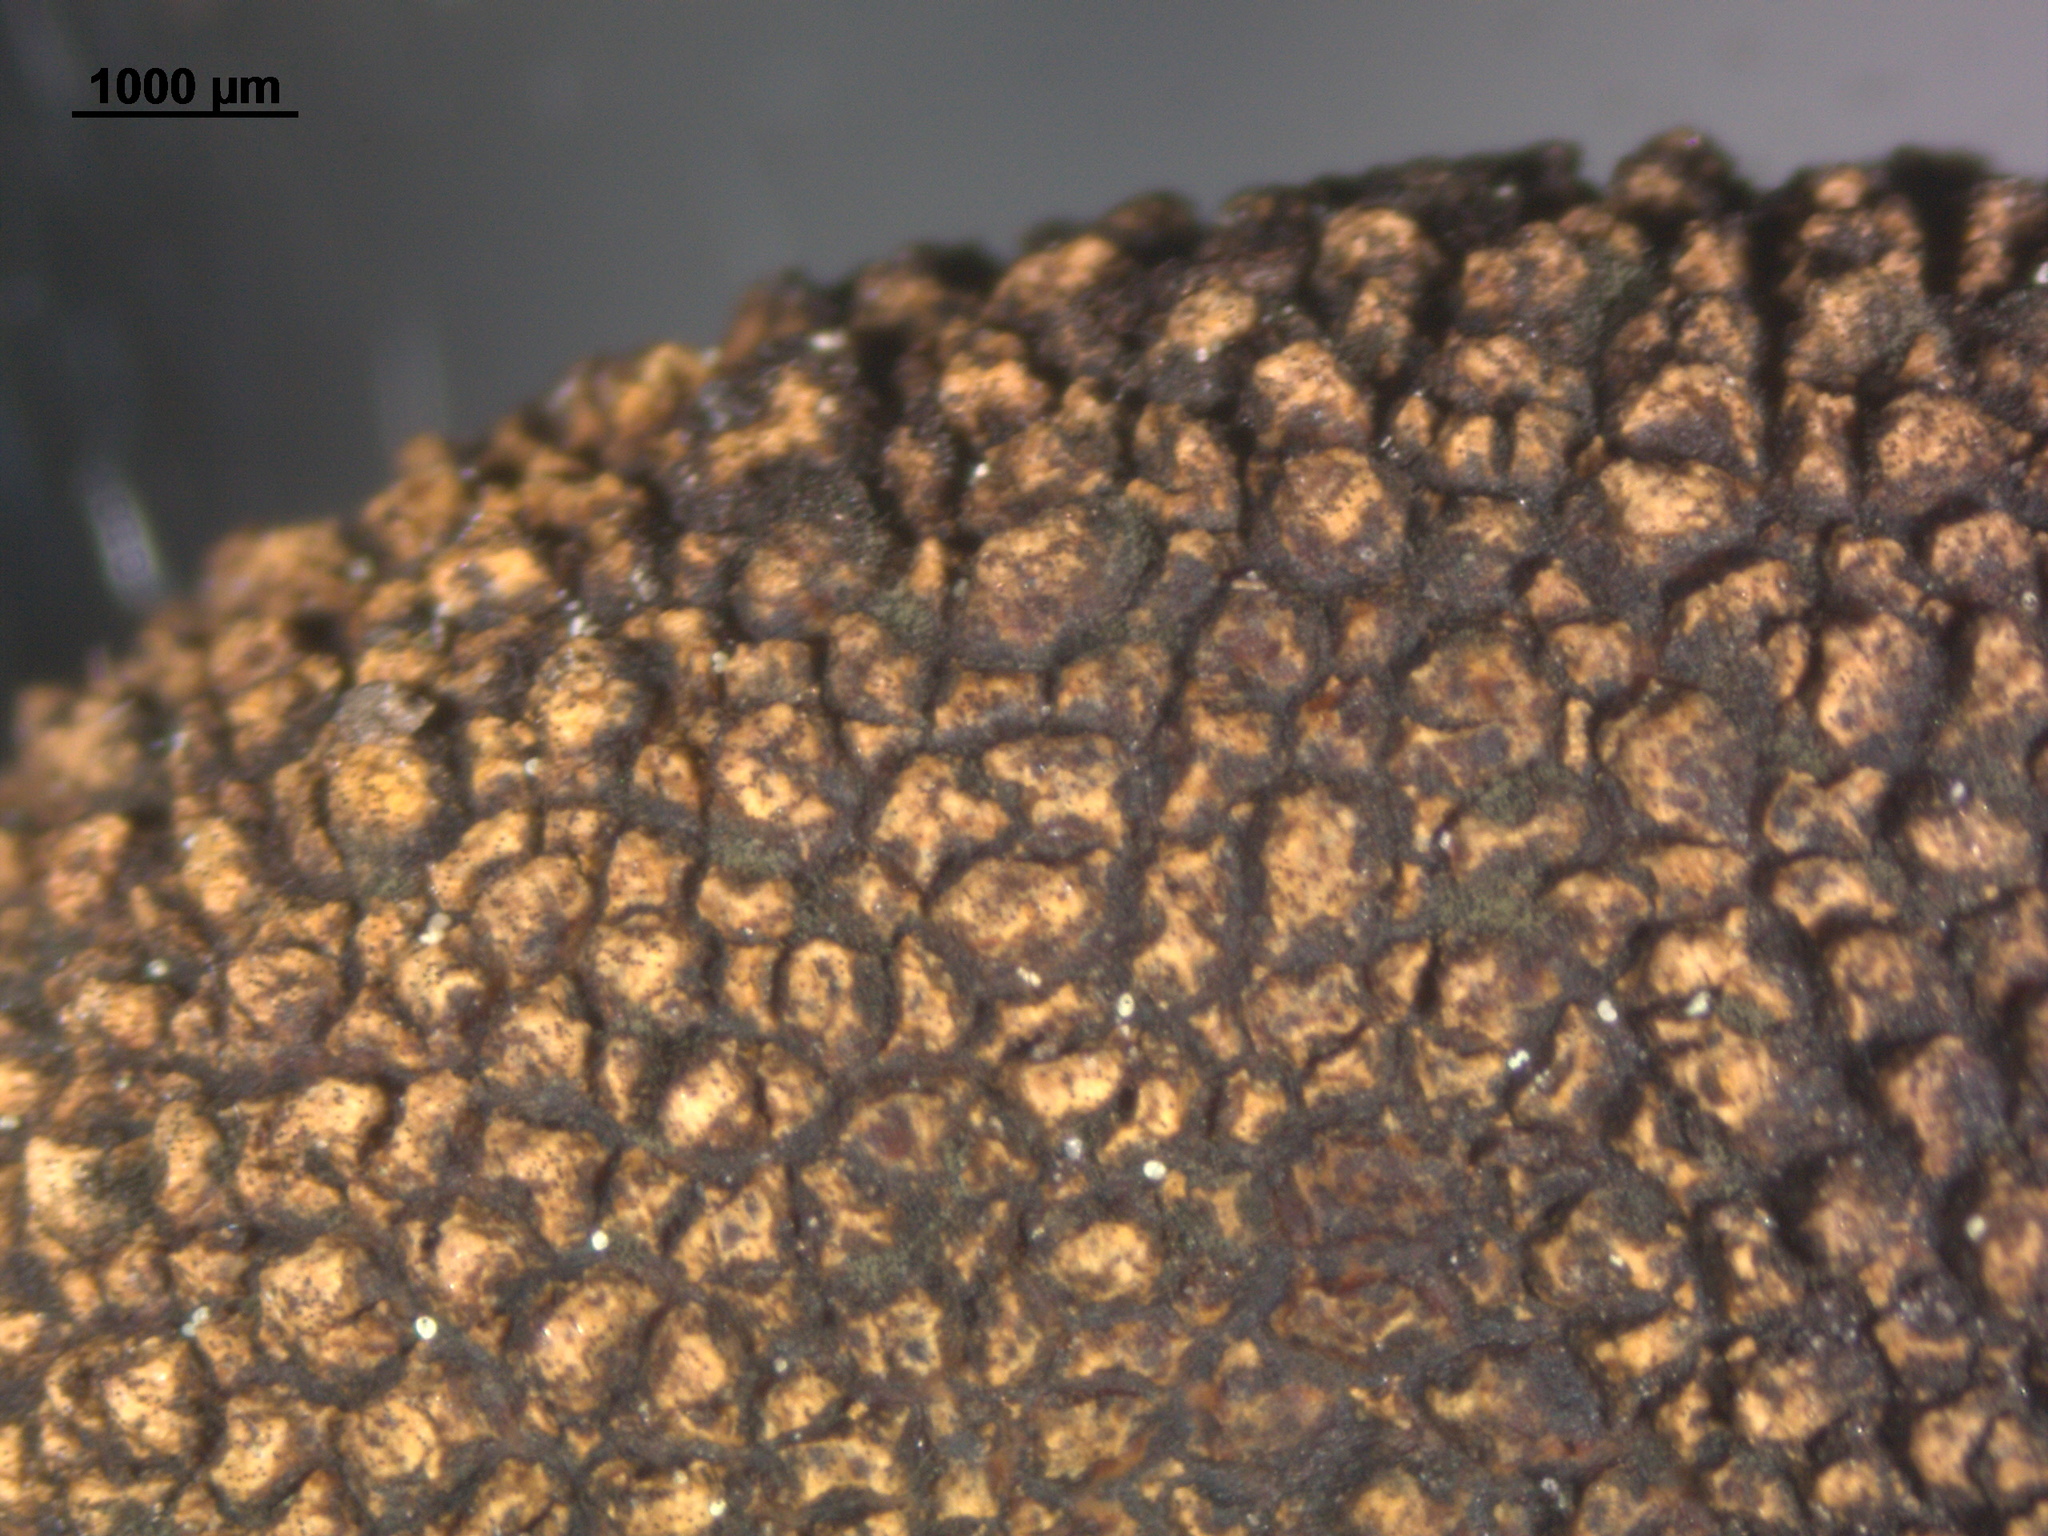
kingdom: Fungi
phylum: Ascomycota
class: Eurotiomycetes
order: Eurotiales
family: Elaphomycetaceae
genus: Elaphomyces
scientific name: Elaphomyces asperulus
